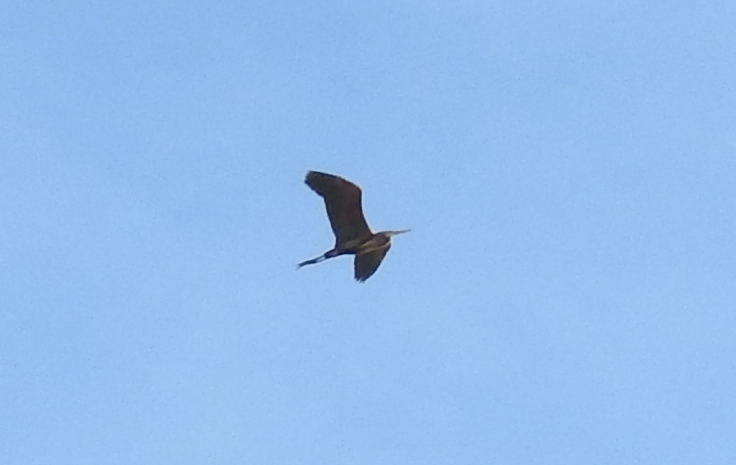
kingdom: Animalia
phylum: Chordata
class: Aves
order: Pelecaniformes
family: Ardeidae
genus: Ardea
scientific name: Ardea purpurea
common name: Purple heron
